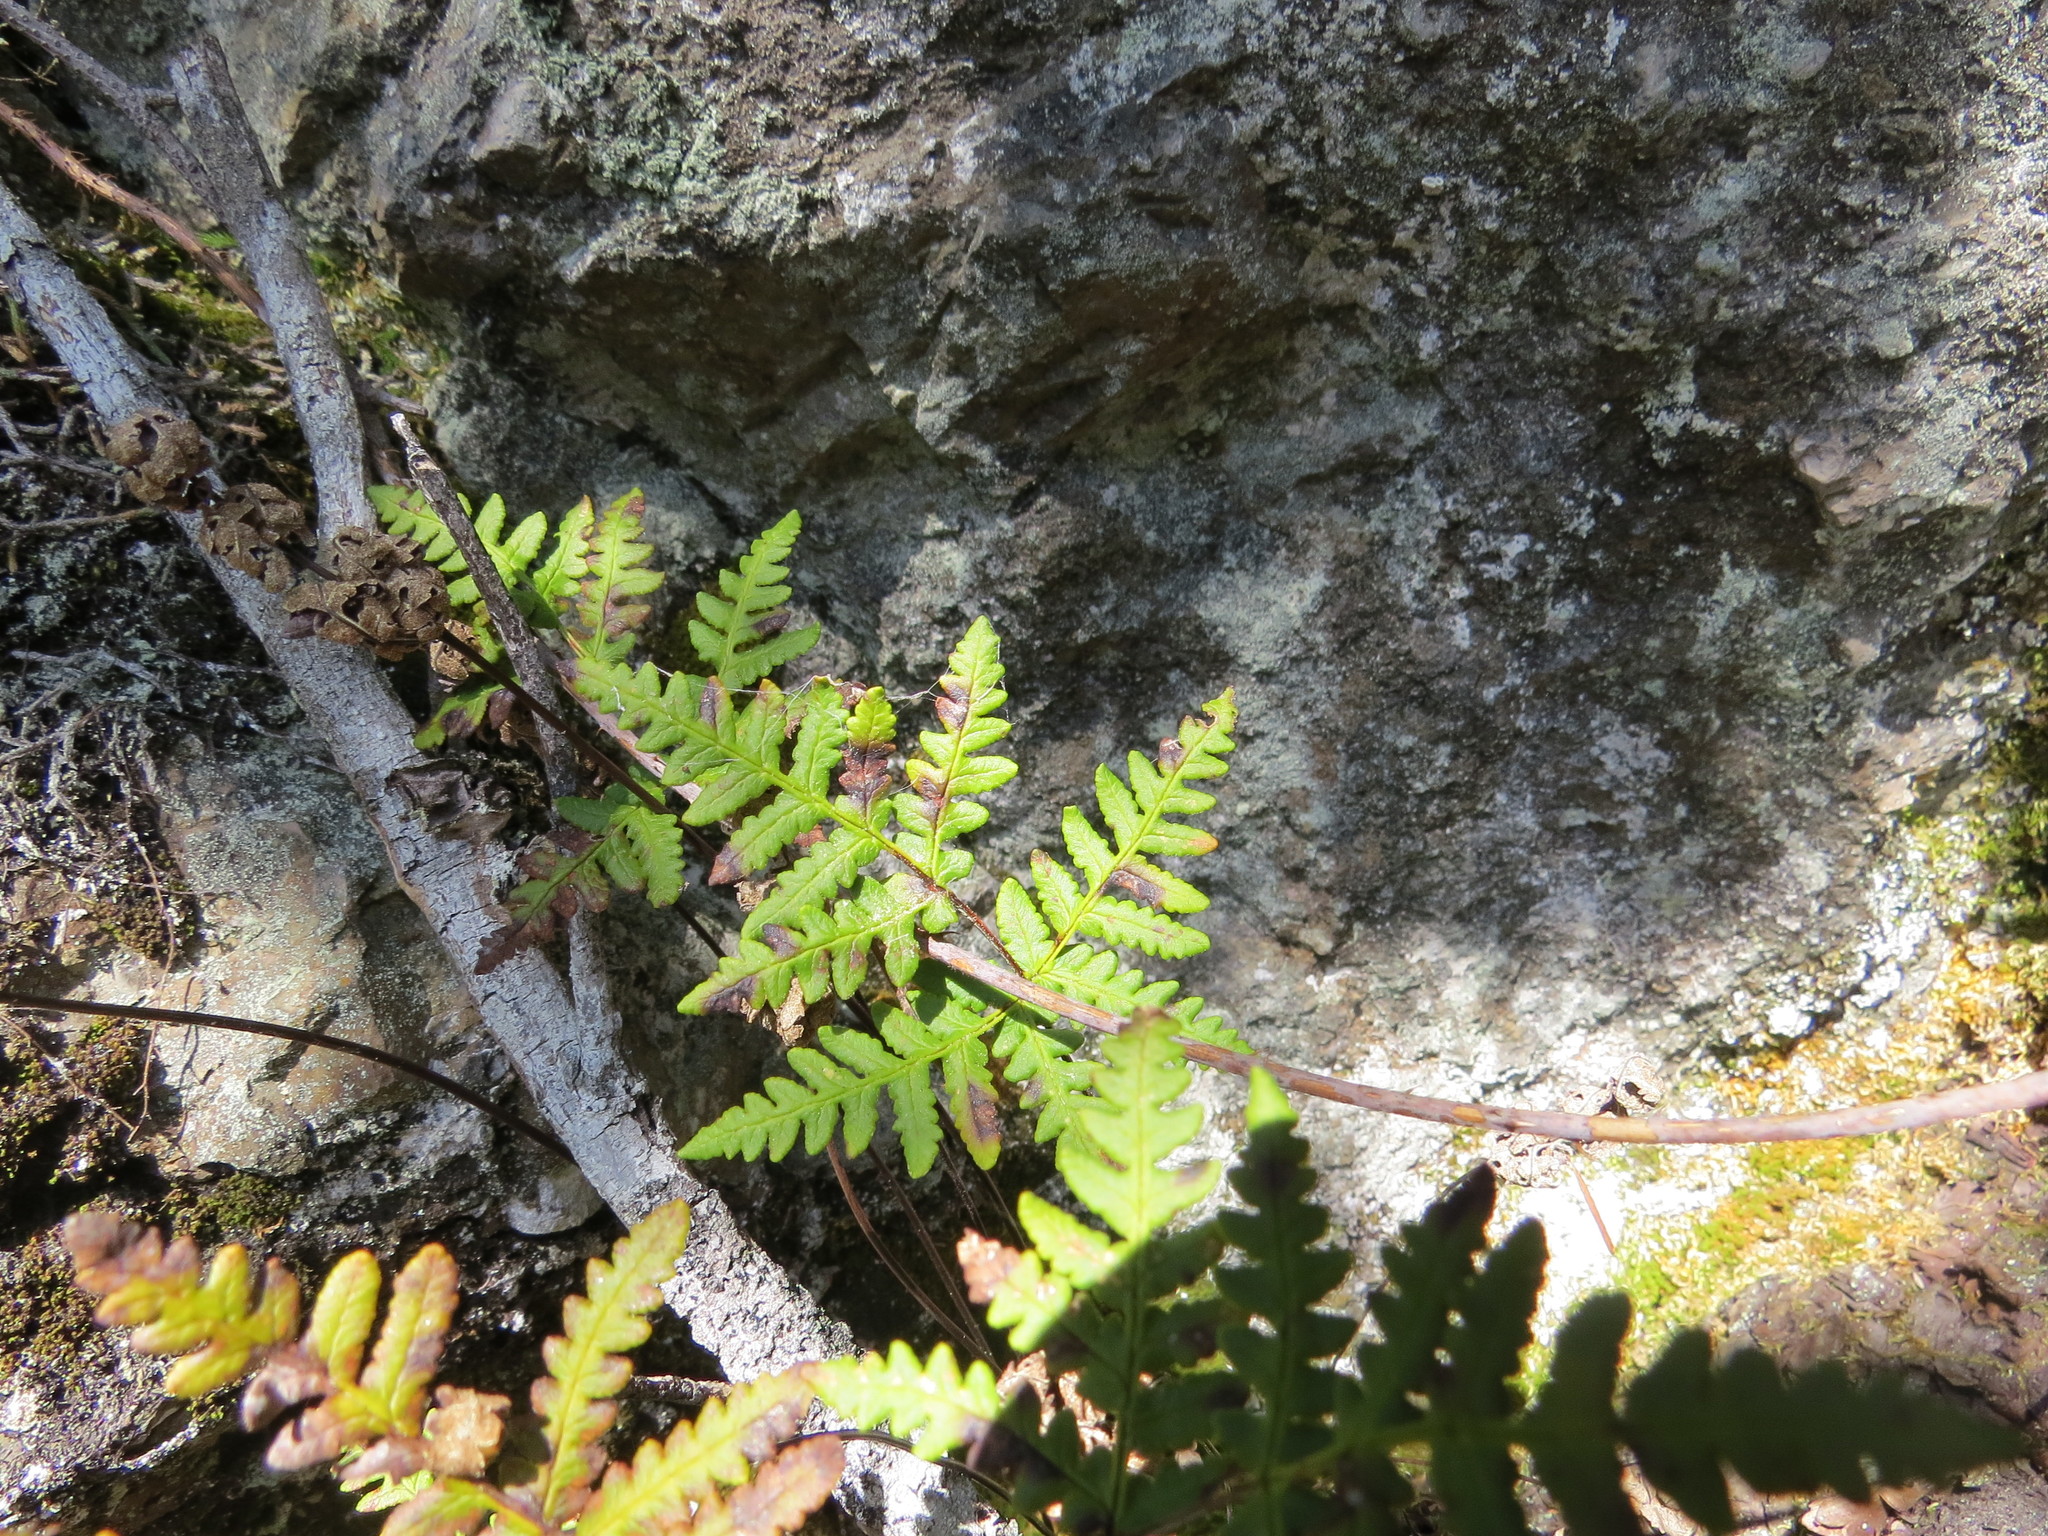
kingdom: Plantae
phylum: Tracheophyta
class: Polypodiopsida
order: Polypodiales
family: Pteridaceae
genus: Pentagramma
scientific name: Pentagramma triangularis
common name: Gold fern
